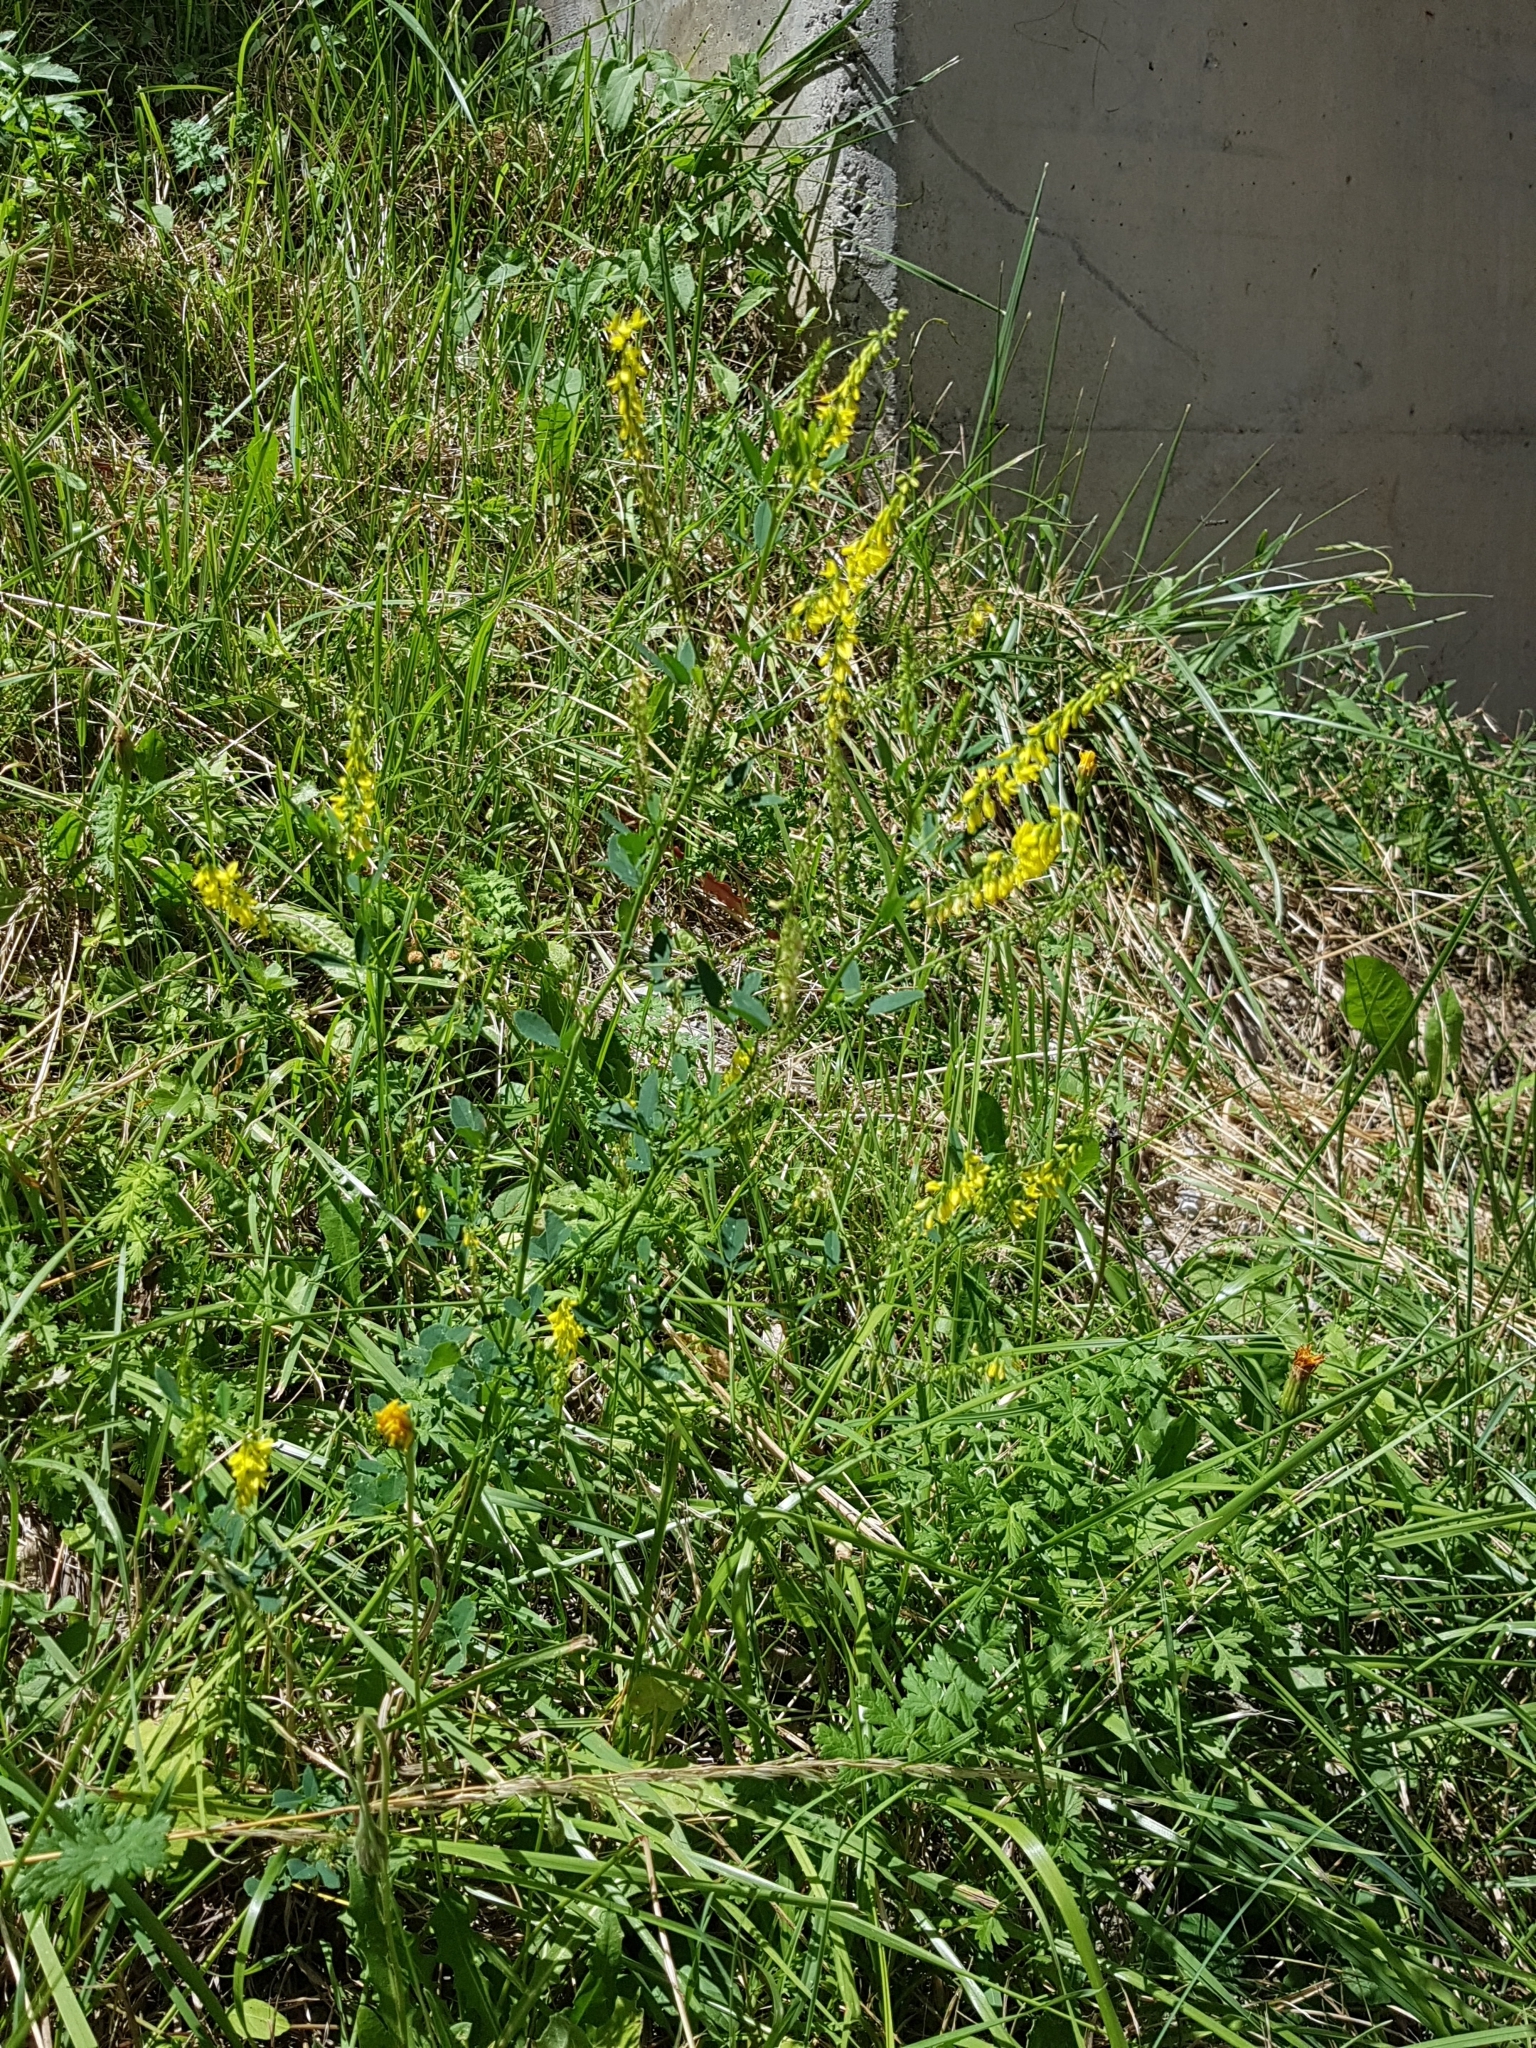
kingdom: Plantae
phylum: Tracheophyta
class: Magnoliopsida
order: Fabales
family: Fabaceae
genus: Melilotus
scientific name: Melilotus officinalis
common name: Sweetclover
